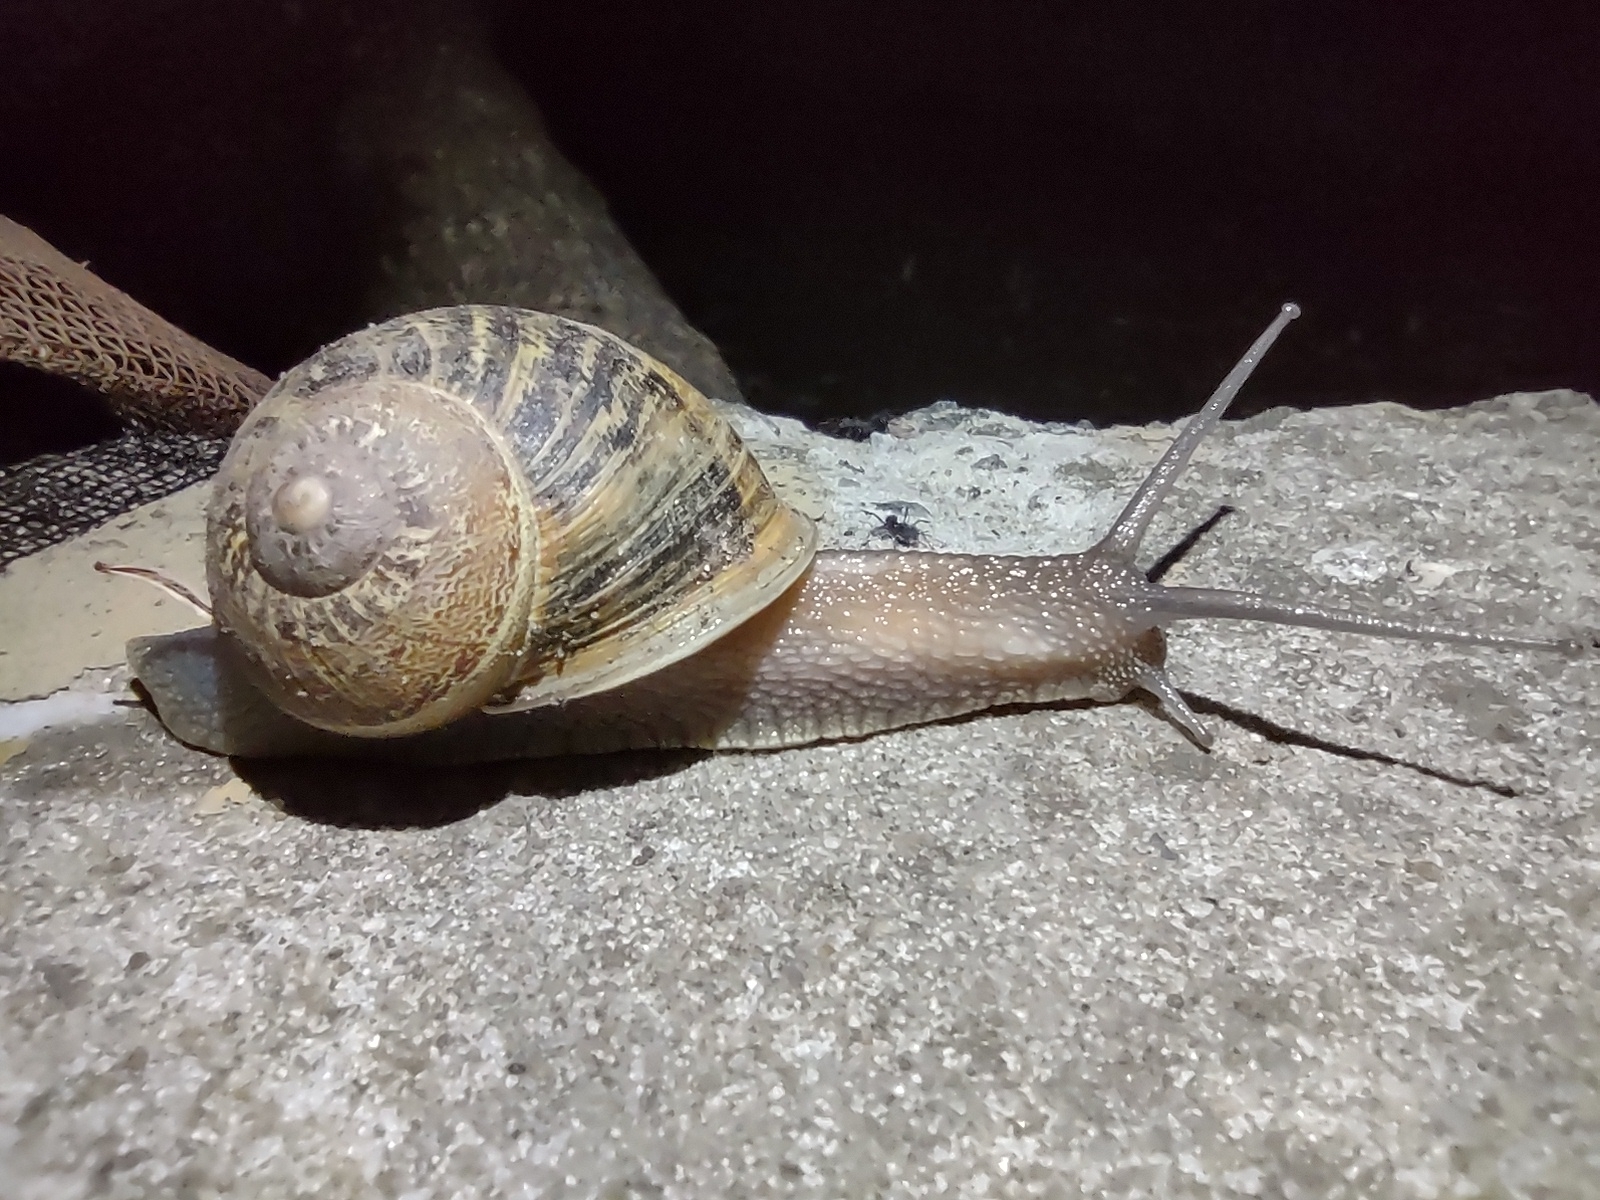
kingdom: Animalia
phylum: Mollusca
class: Gastropoda
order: Stylommatophora
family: Helicidae
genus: Cornu
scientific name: Cornu aspersum
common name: Brown garden snail
